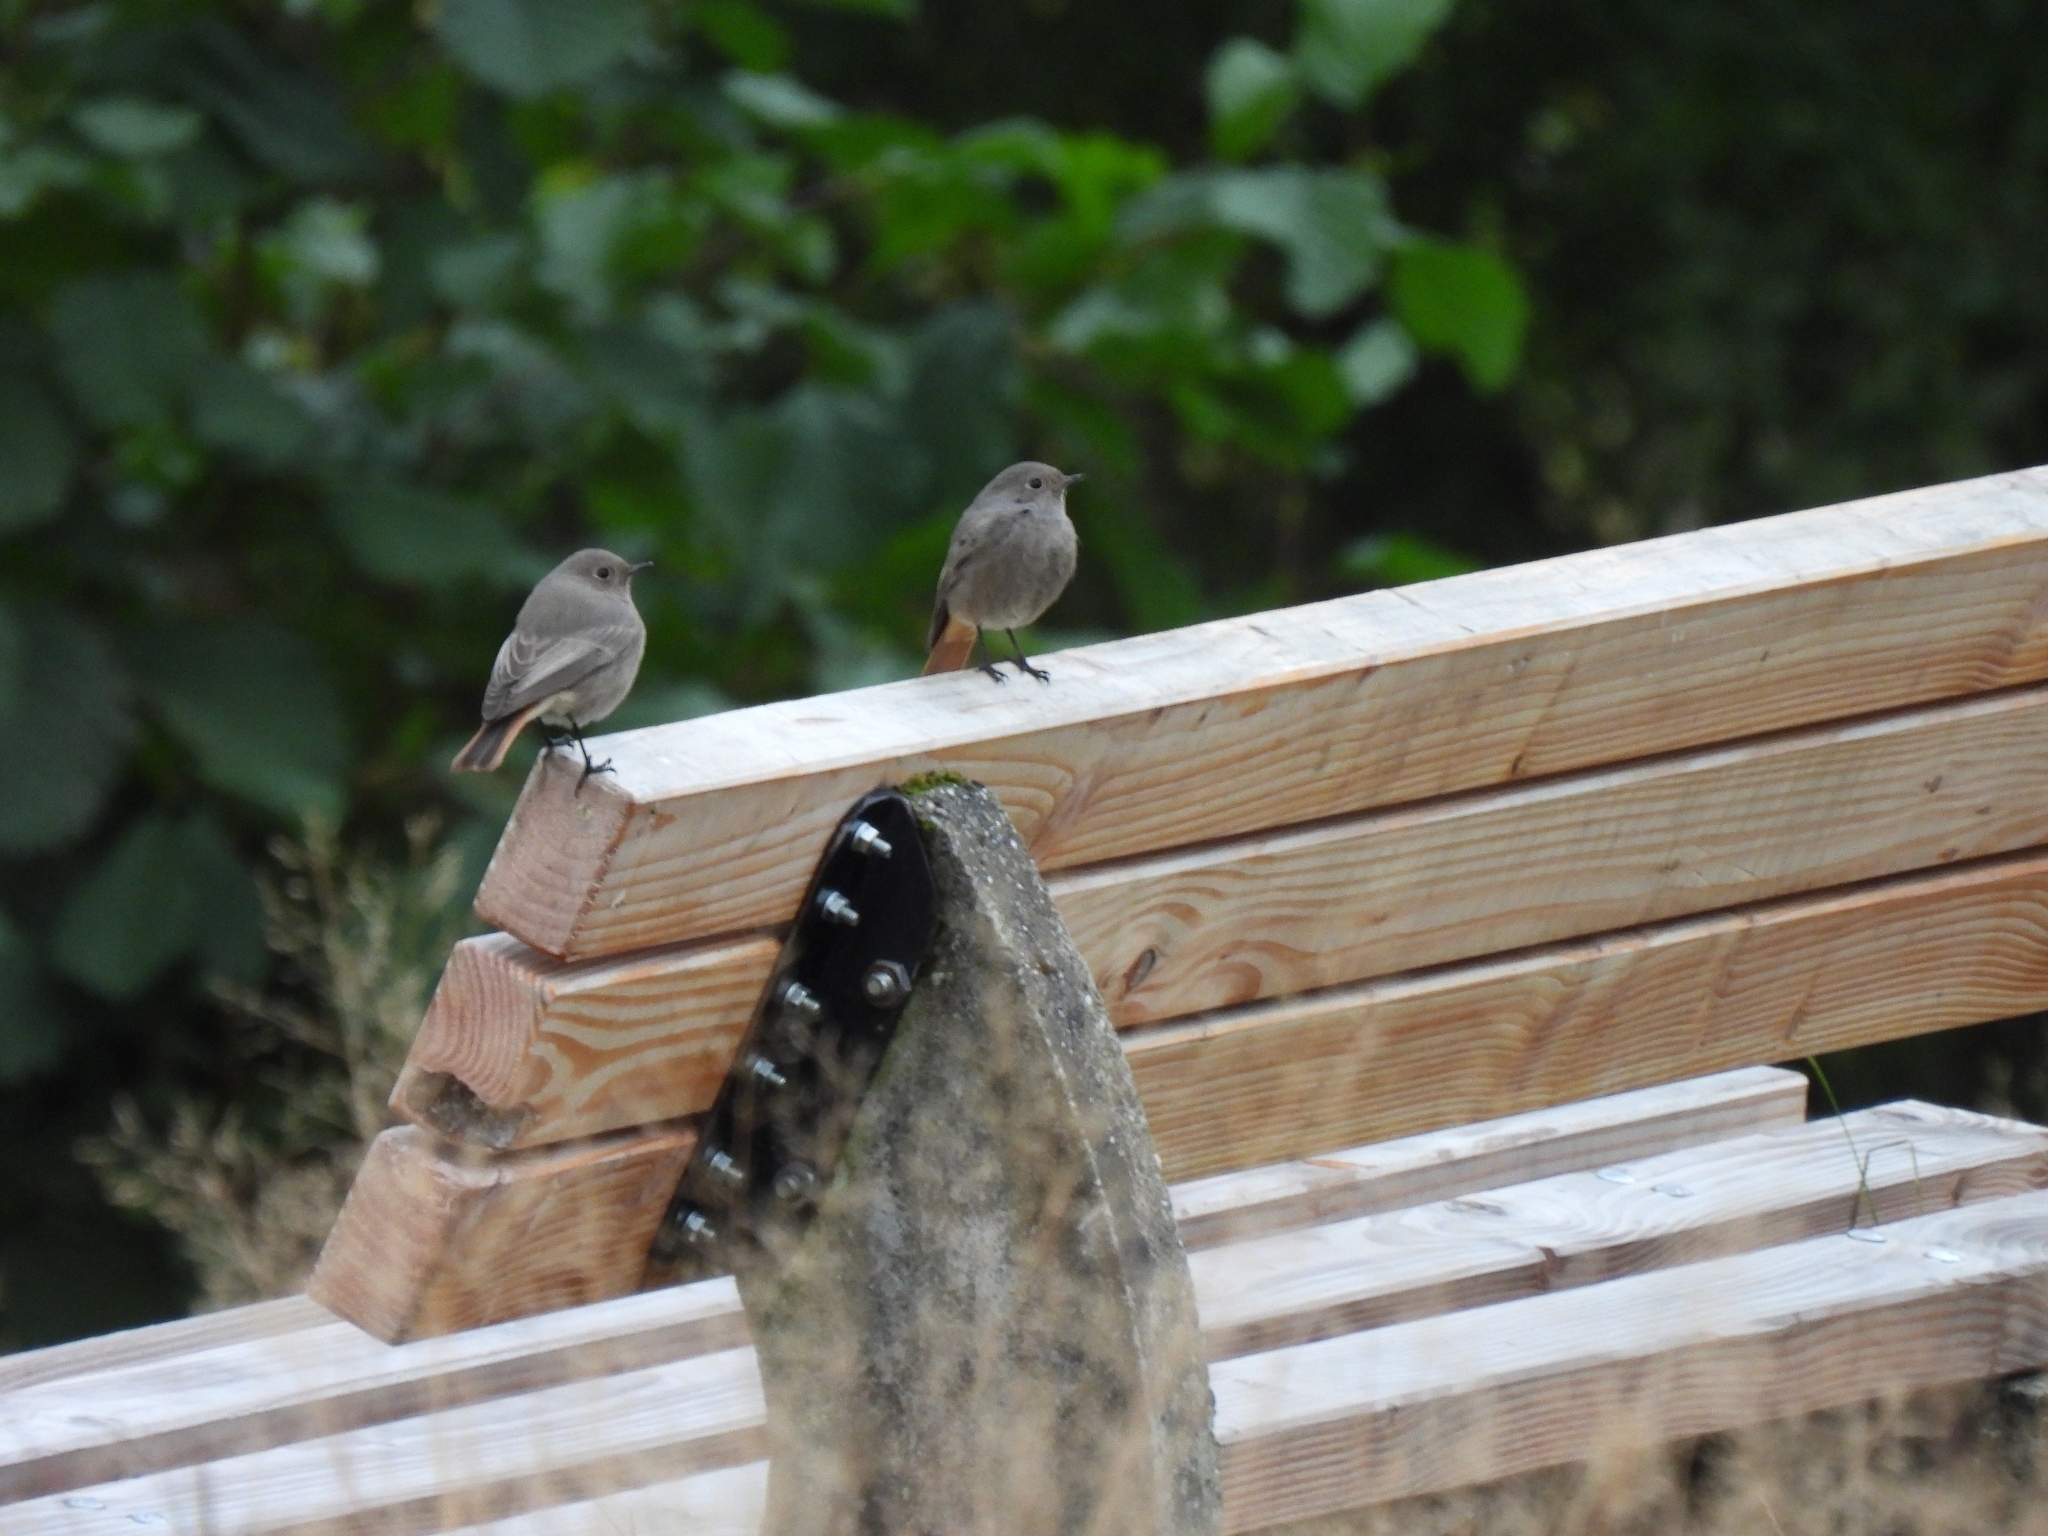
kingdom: Animalia
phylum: Chordata
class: Aves
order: Passeriformes
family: Muscicapidae
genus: Phoenicurus
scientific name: Phoenicurus ochruros
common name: Black redstart
